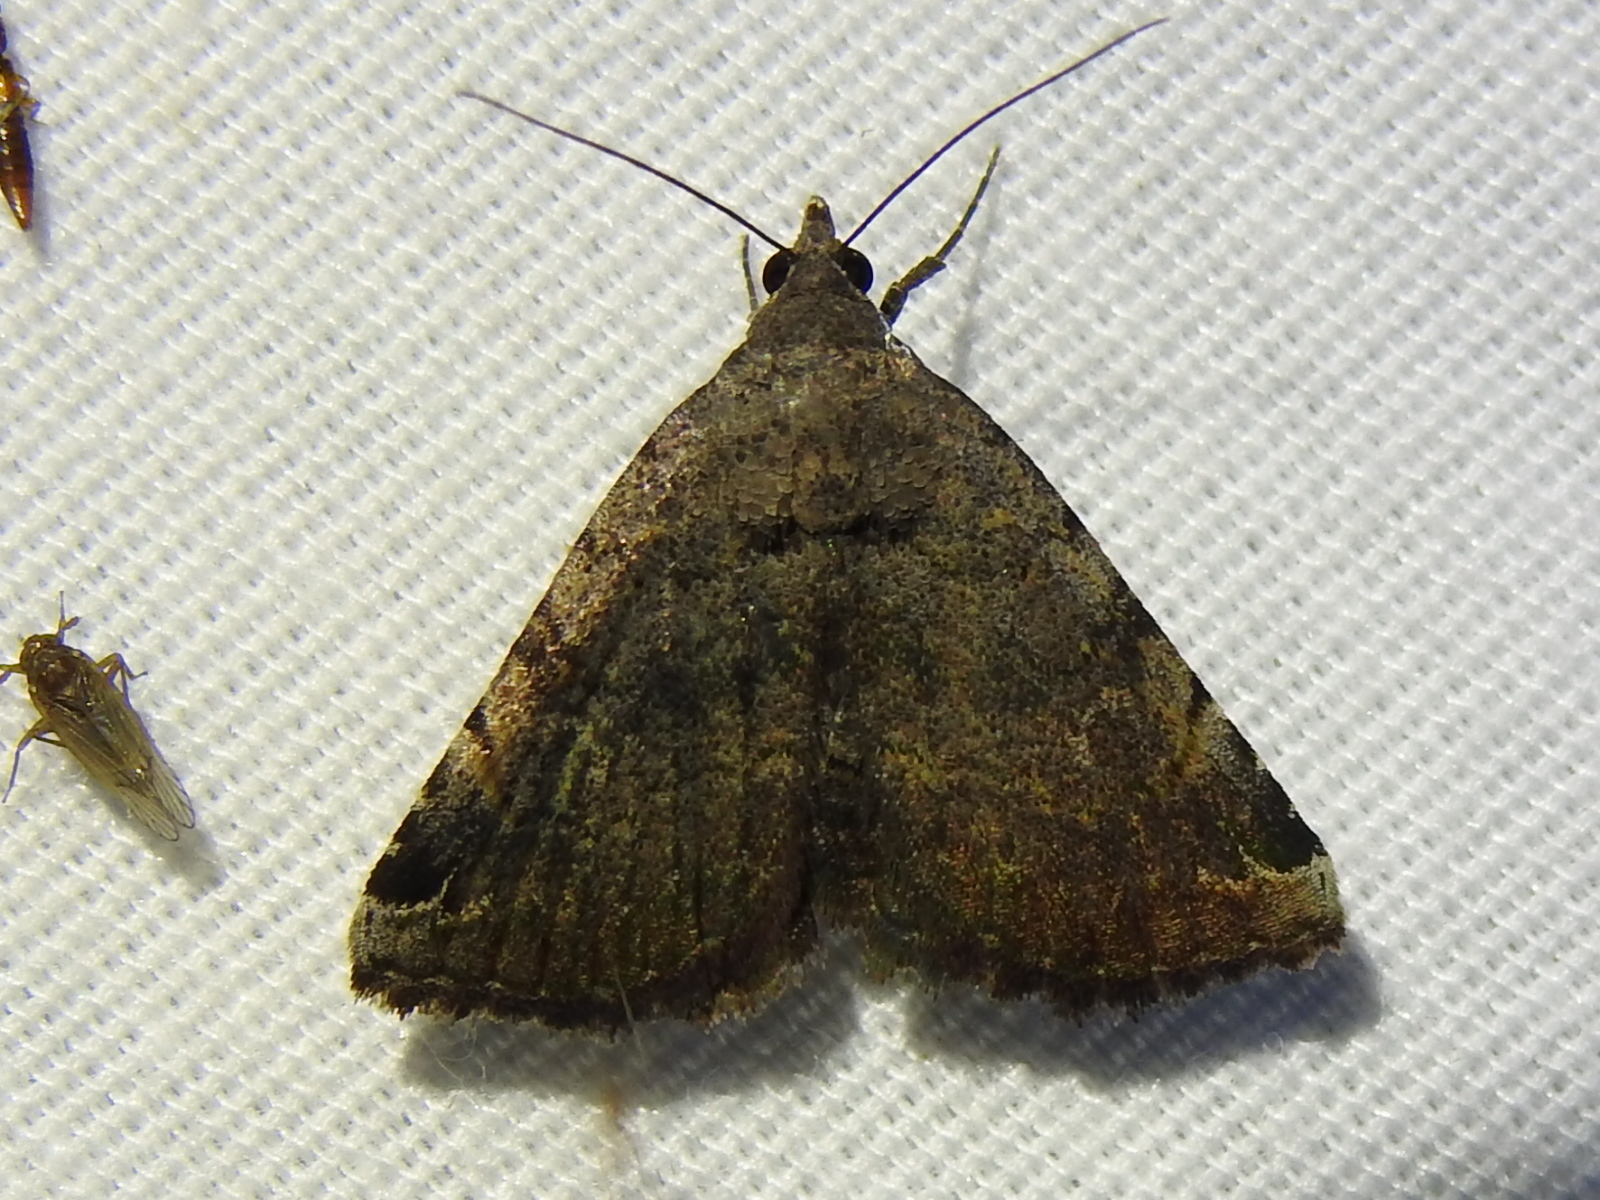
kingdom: Animalia
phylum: Arthropoda
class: Insecta
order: Lepidoptera
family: Erebidae
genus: Toxonprucha
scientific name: Toxonprucha crudelis
